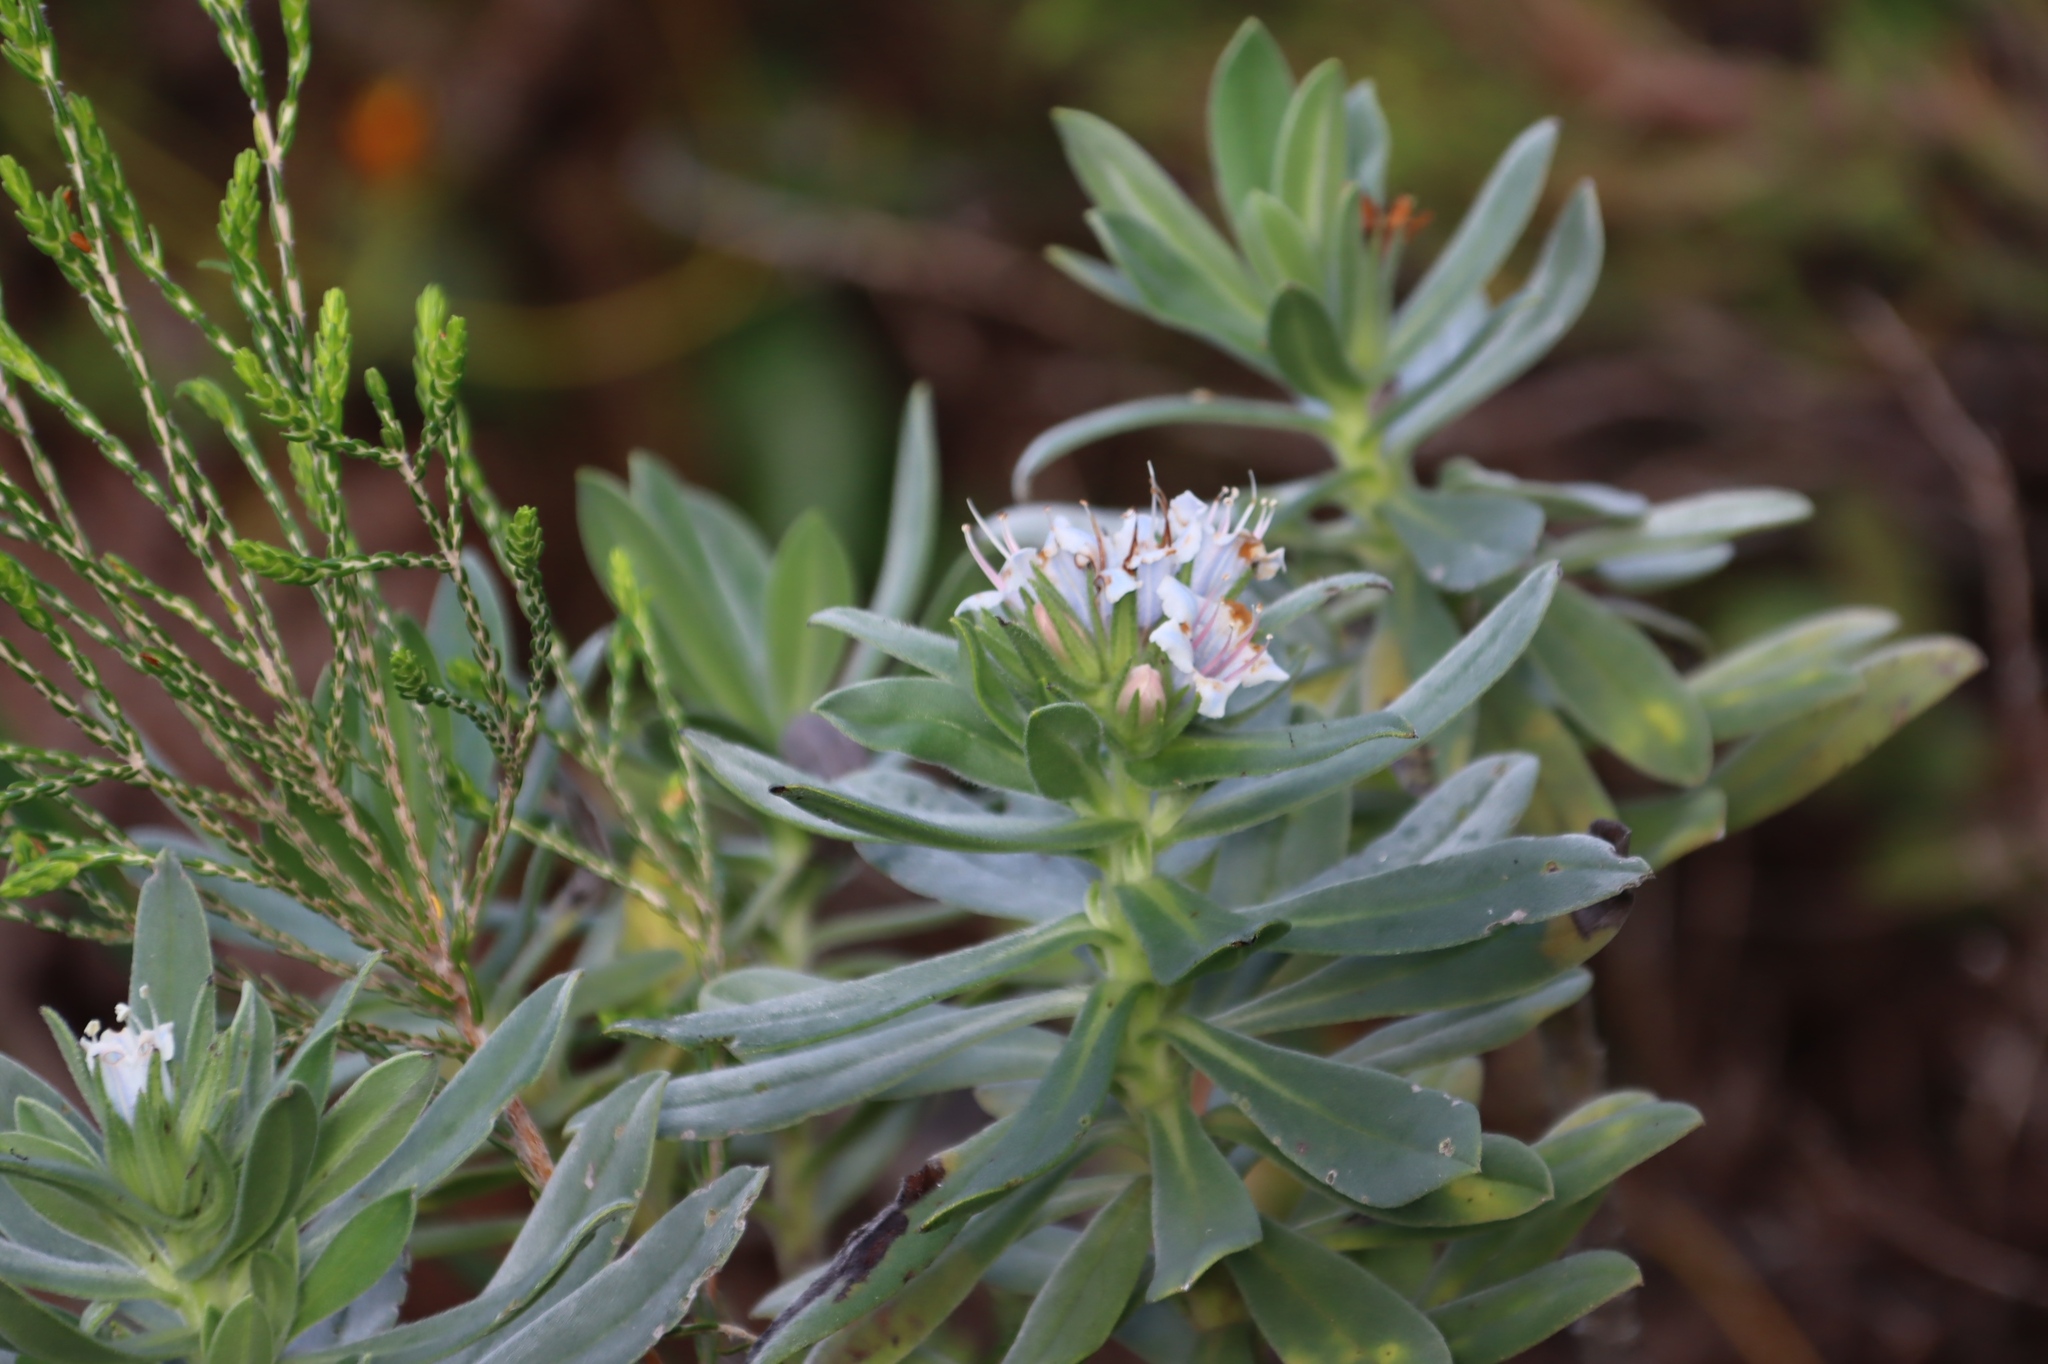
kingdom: Plantae
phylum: Tracheophyta
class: Magnoliopsida
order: Boraginales
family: Boraginaceae
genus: Lobostemon
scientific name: Lobostemon montanus
